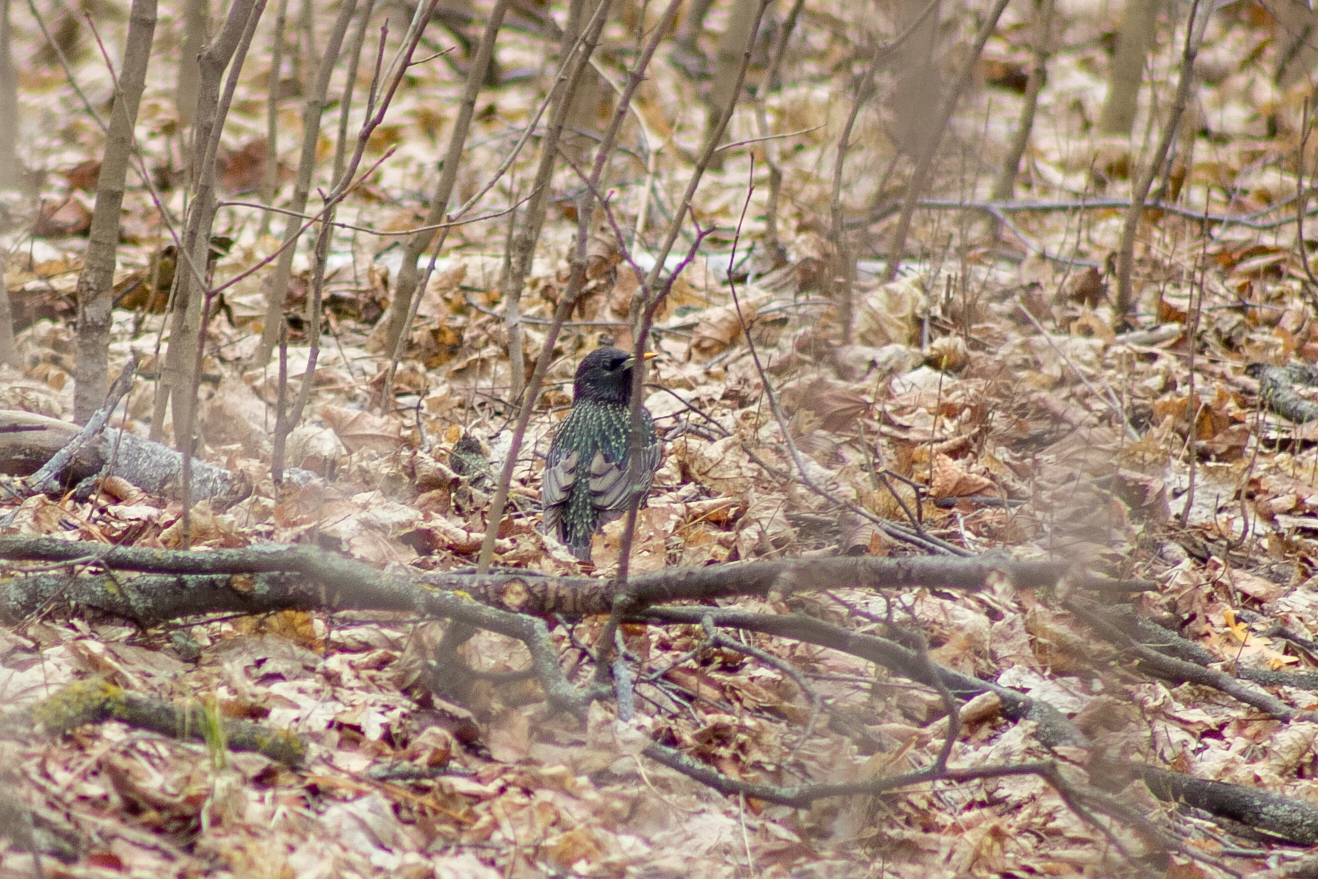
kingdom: Animalia
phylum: Chordata
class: Aves
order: Passeriformes
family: Sturnidae
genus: Sturnus
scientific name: Sturnus vulgaris
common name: Common starling
